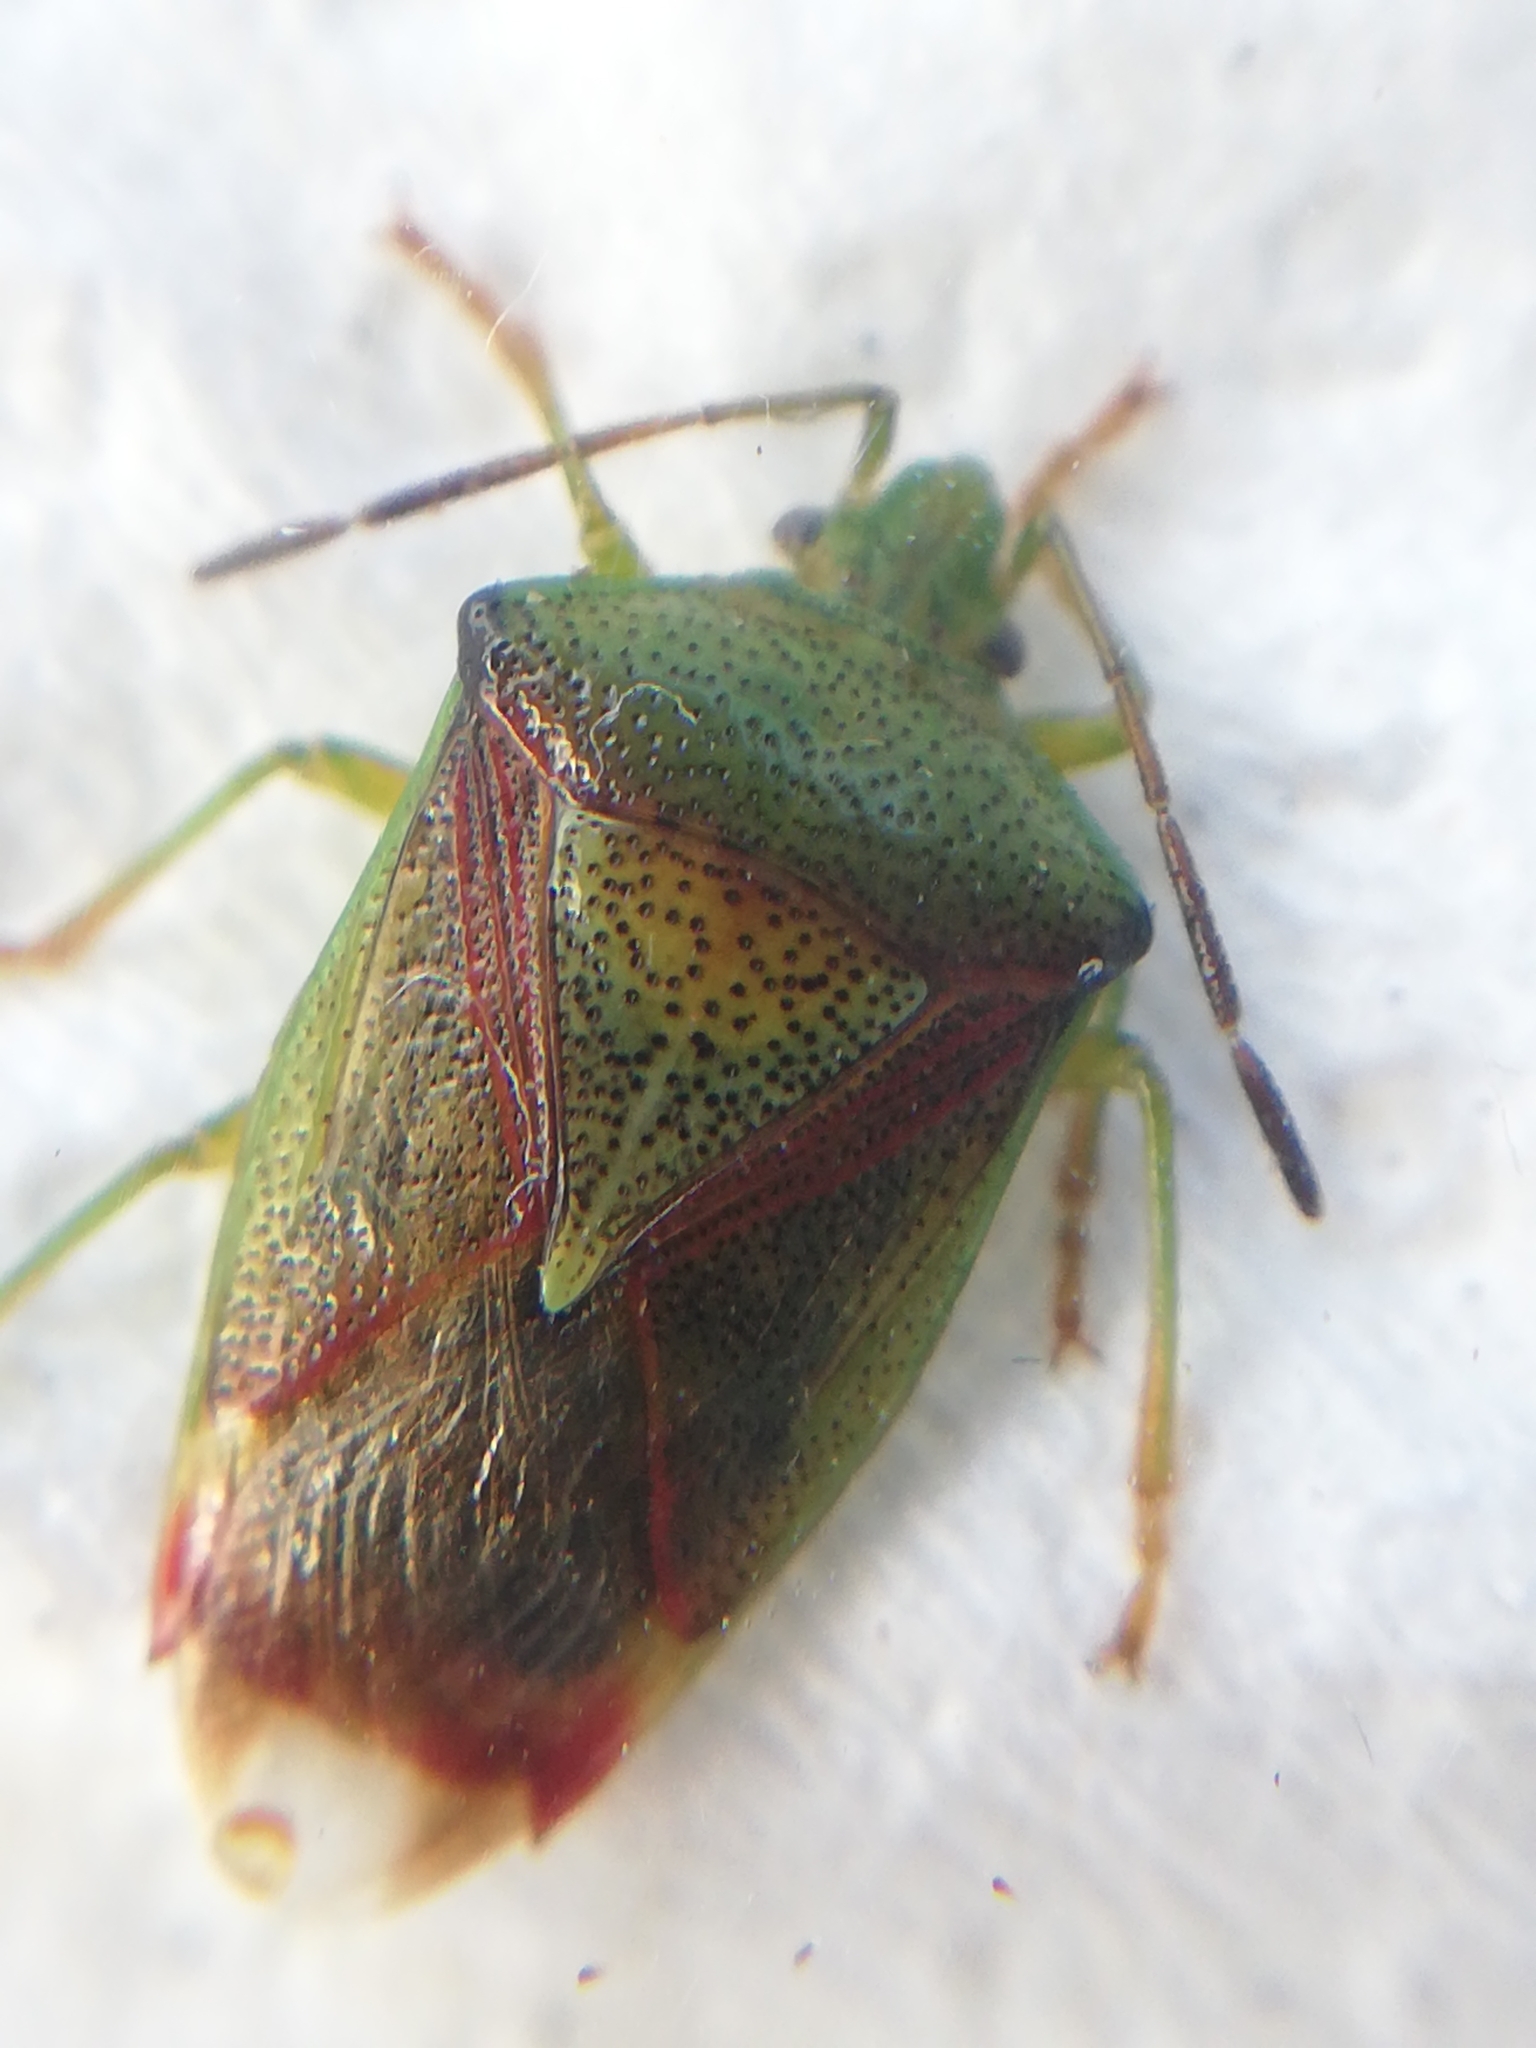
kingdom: Animalia
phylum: Arthropoda
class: Insecta
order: Hemiptera
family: Acanthosomatidae
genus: Elasmostethus
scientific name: Elasmostethus interstinctus
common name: Birch shieldbug
